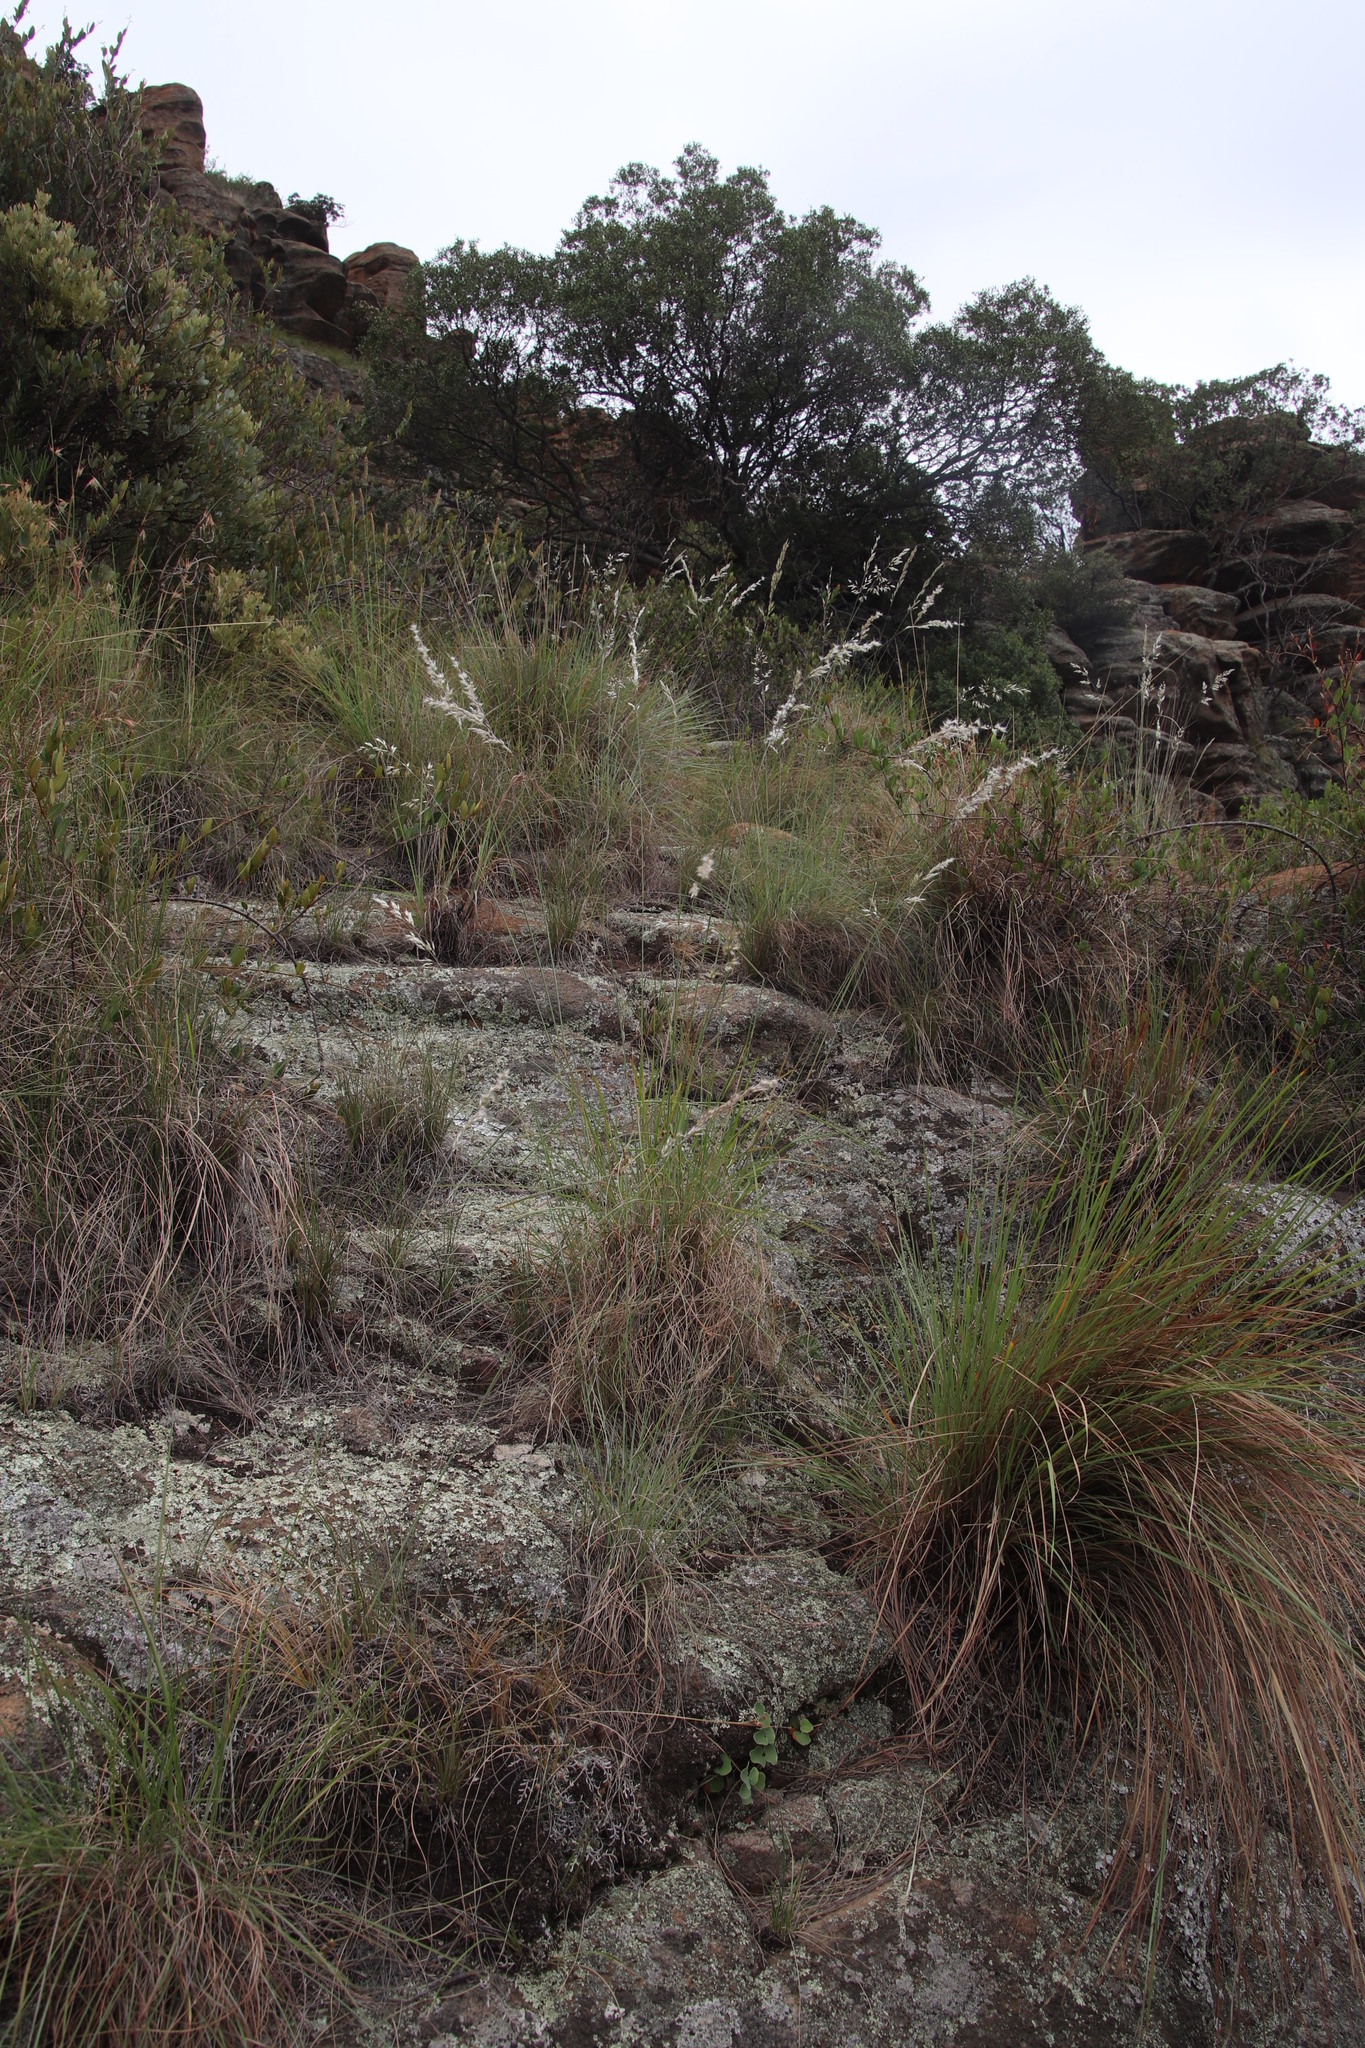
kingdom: Plantae
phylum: Tracheophyta
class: Liliopsida
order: Poales
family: Poaceae
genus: Melinis
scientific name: Melinis nerviglumis
